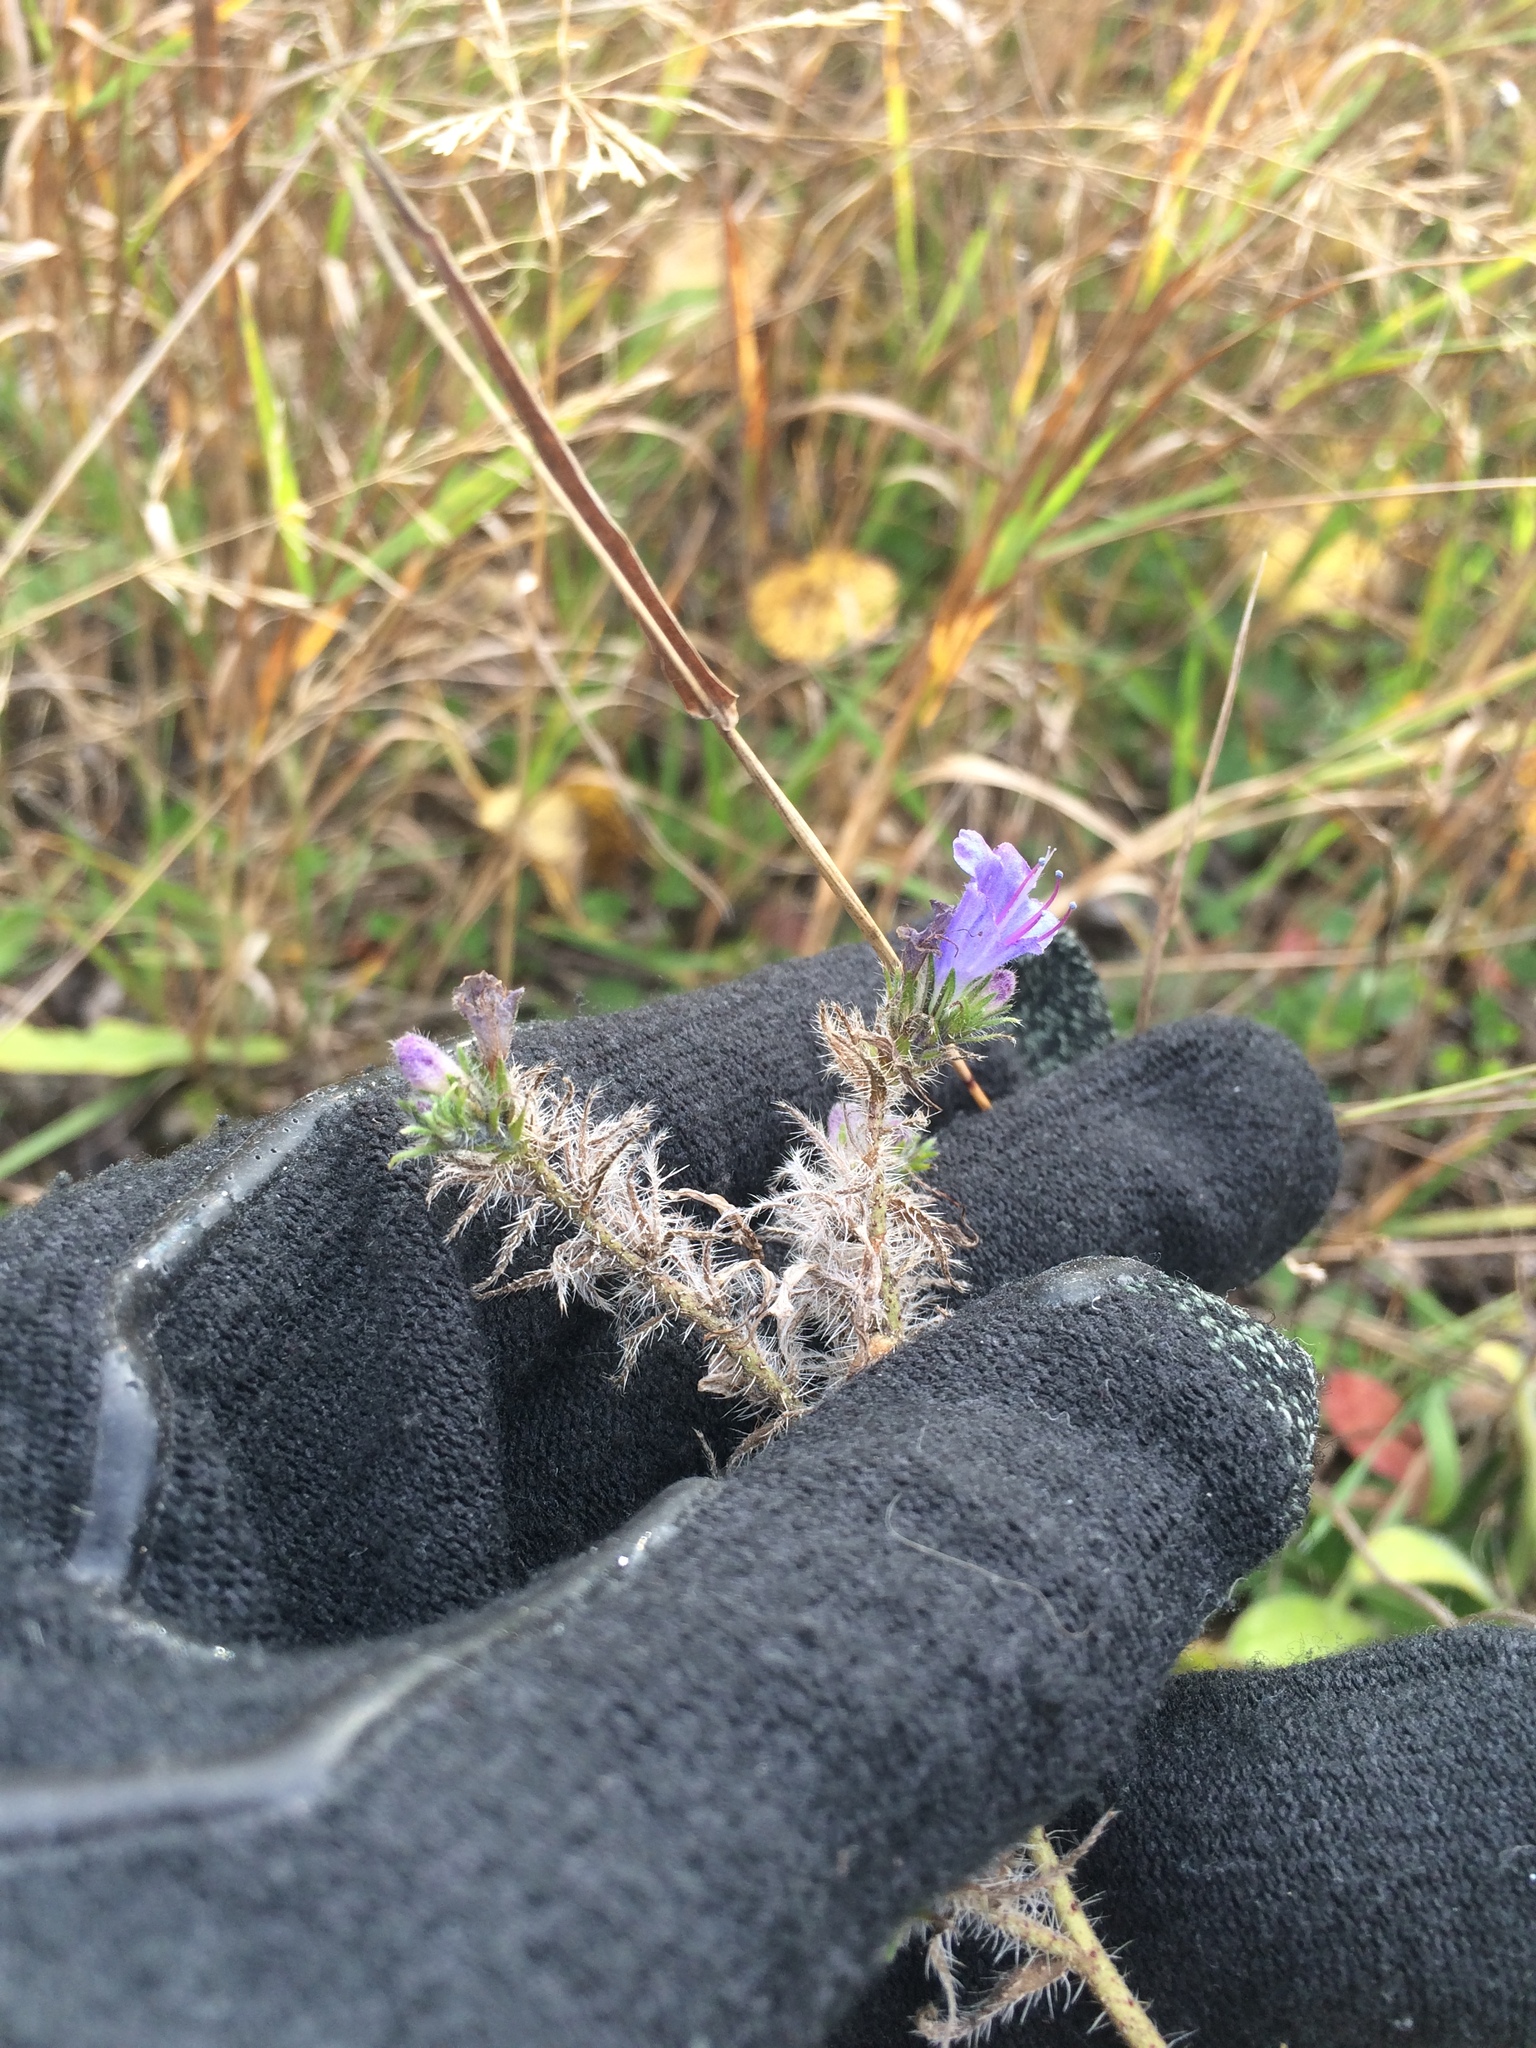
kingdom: Plantae
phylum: Tracheophyta
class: Magnoliopsida
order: Boraginales
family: Boraginaceae
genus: Echium
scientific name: Echium vulgare
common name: Common viper's bugloss
